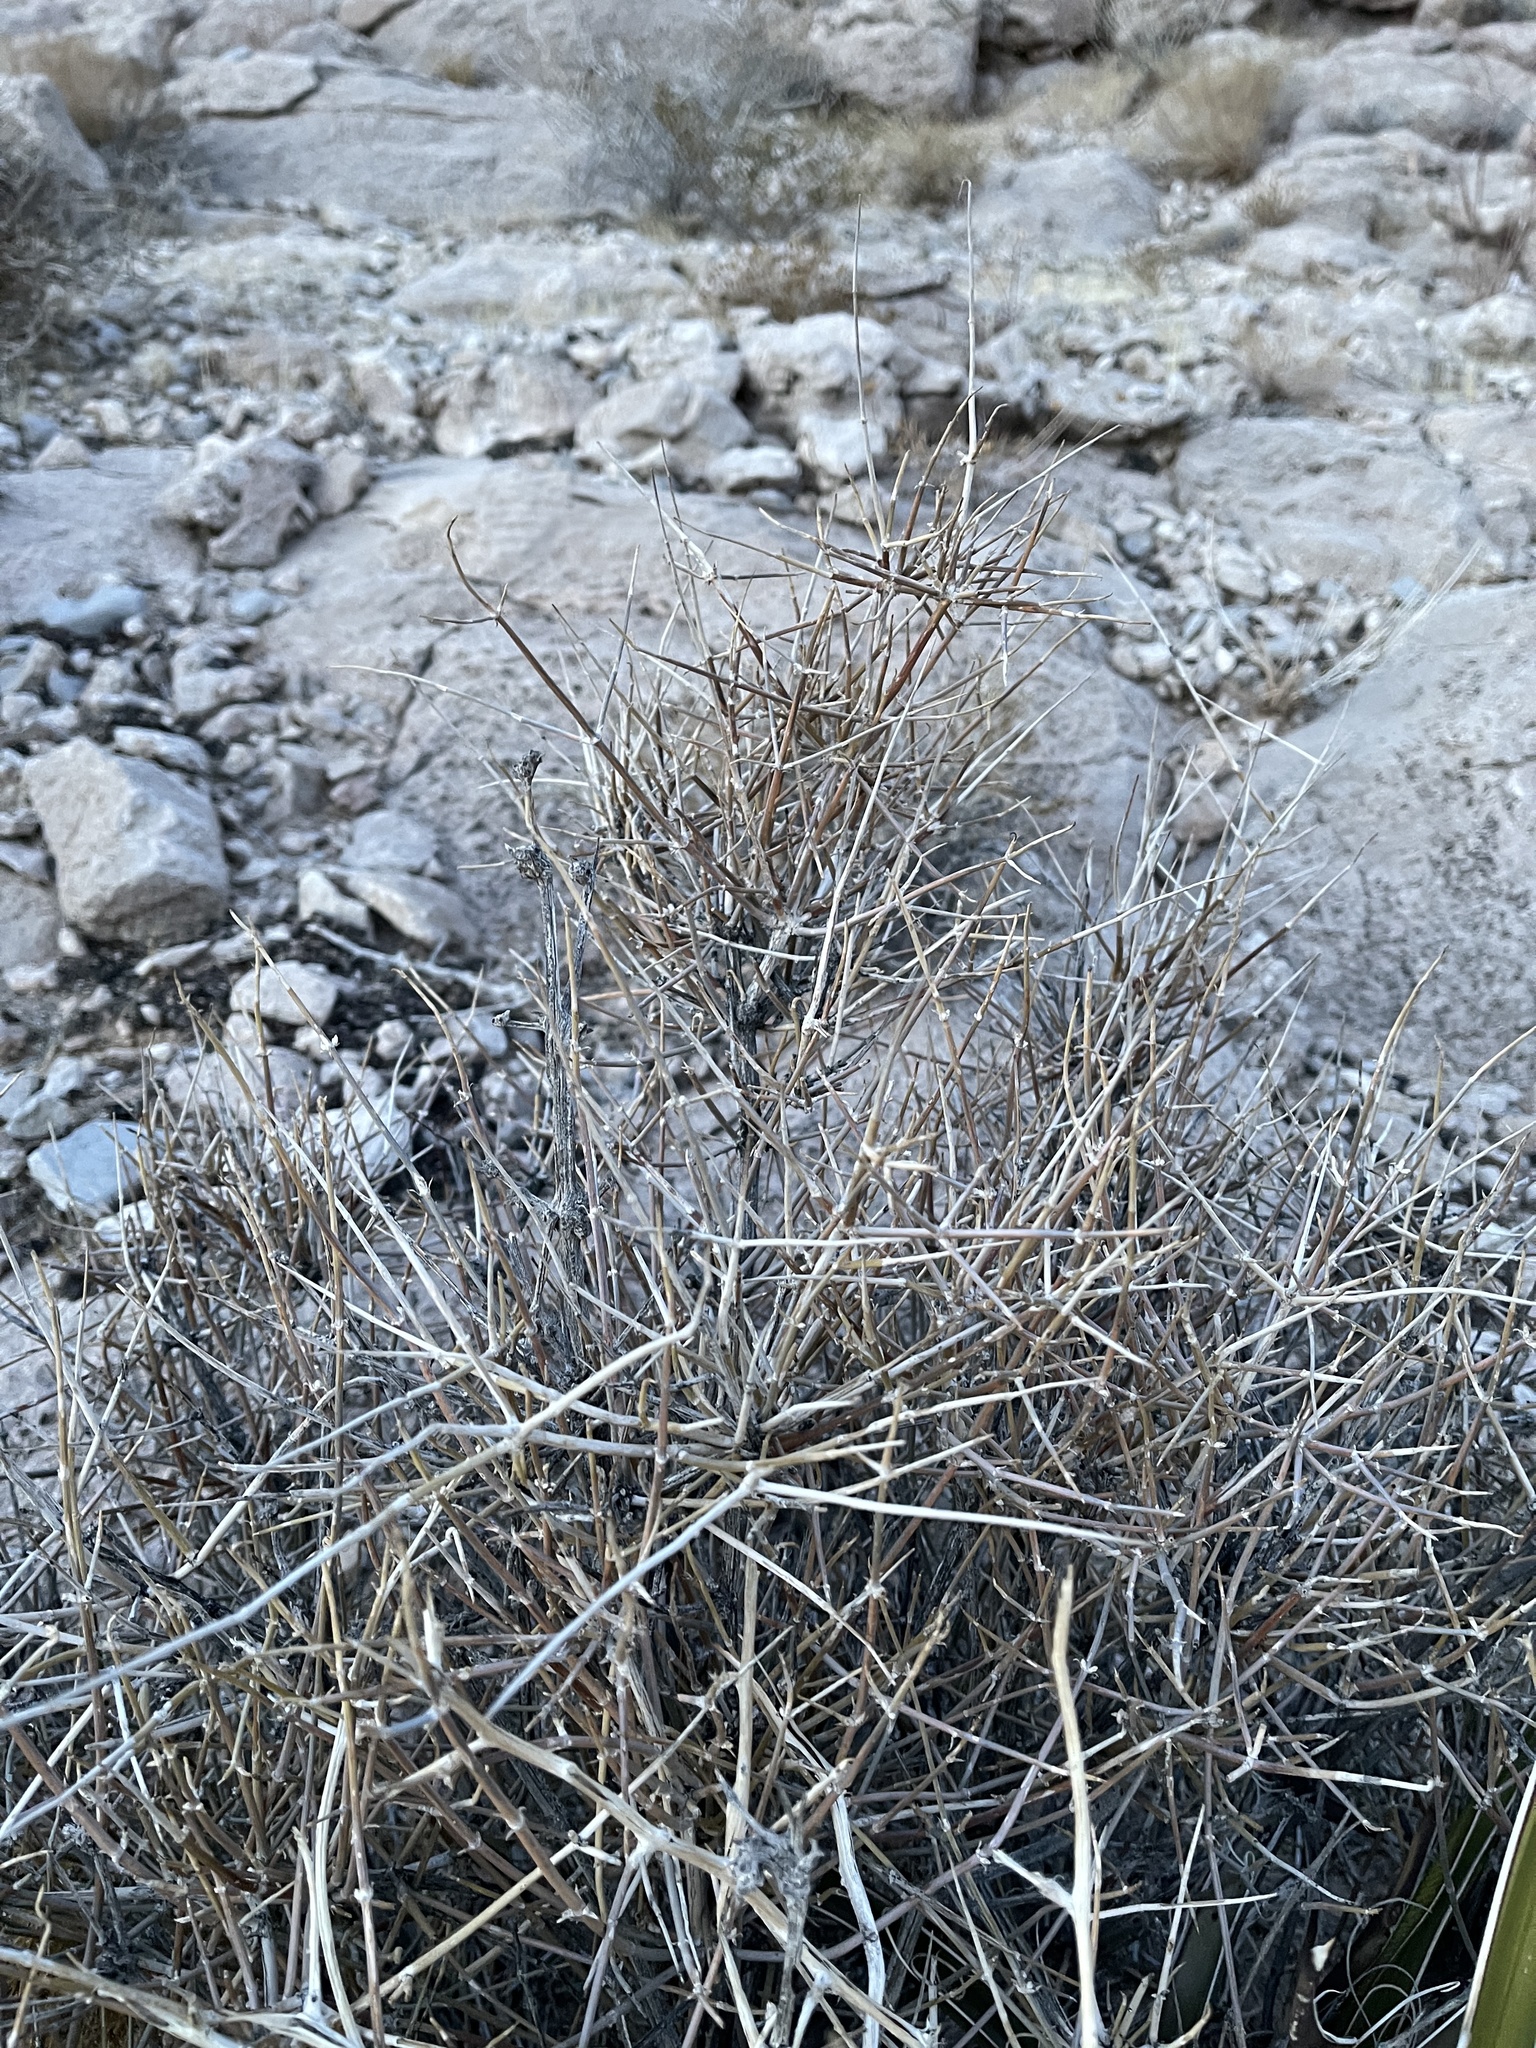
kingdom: Plantae
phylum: Tracheophyta
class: Gnetopsida
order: Ephedrales
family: Ephedraceae
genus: Ephedra
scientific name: Ephedra nevadensis
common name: Gray ephedra
